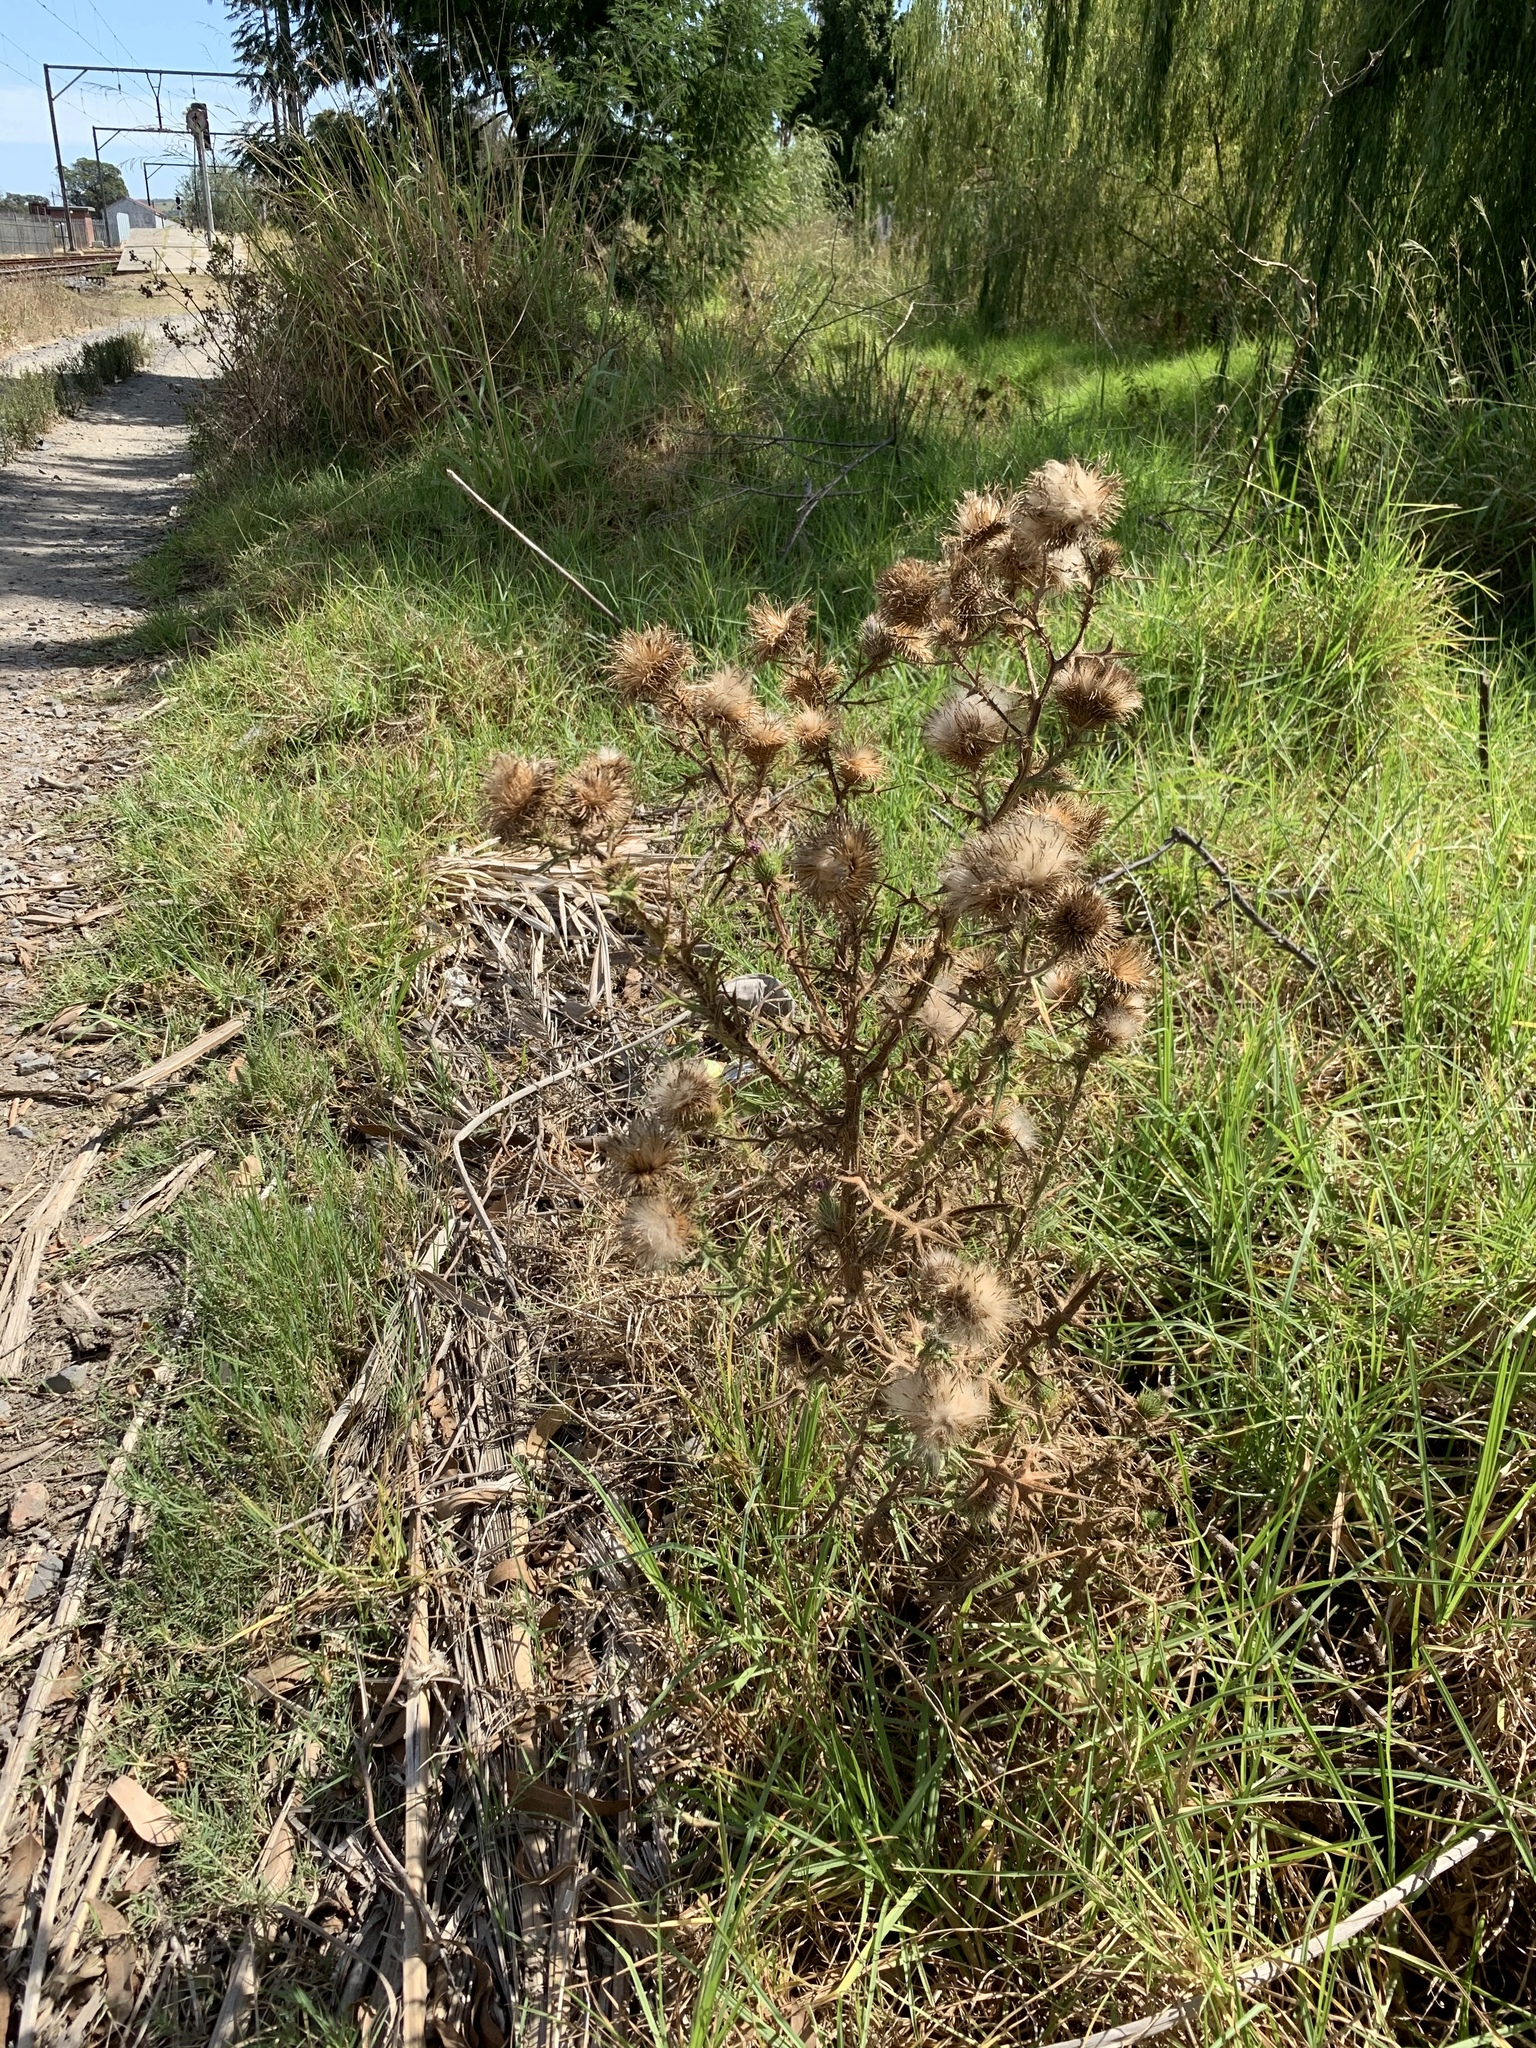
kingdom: Plantae
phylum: Tracheophyta
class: Magnoliopsida
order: Asterales
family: Asteraceae
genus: Cirsium
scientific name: Cirsium vulgare
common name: Bull thistle
